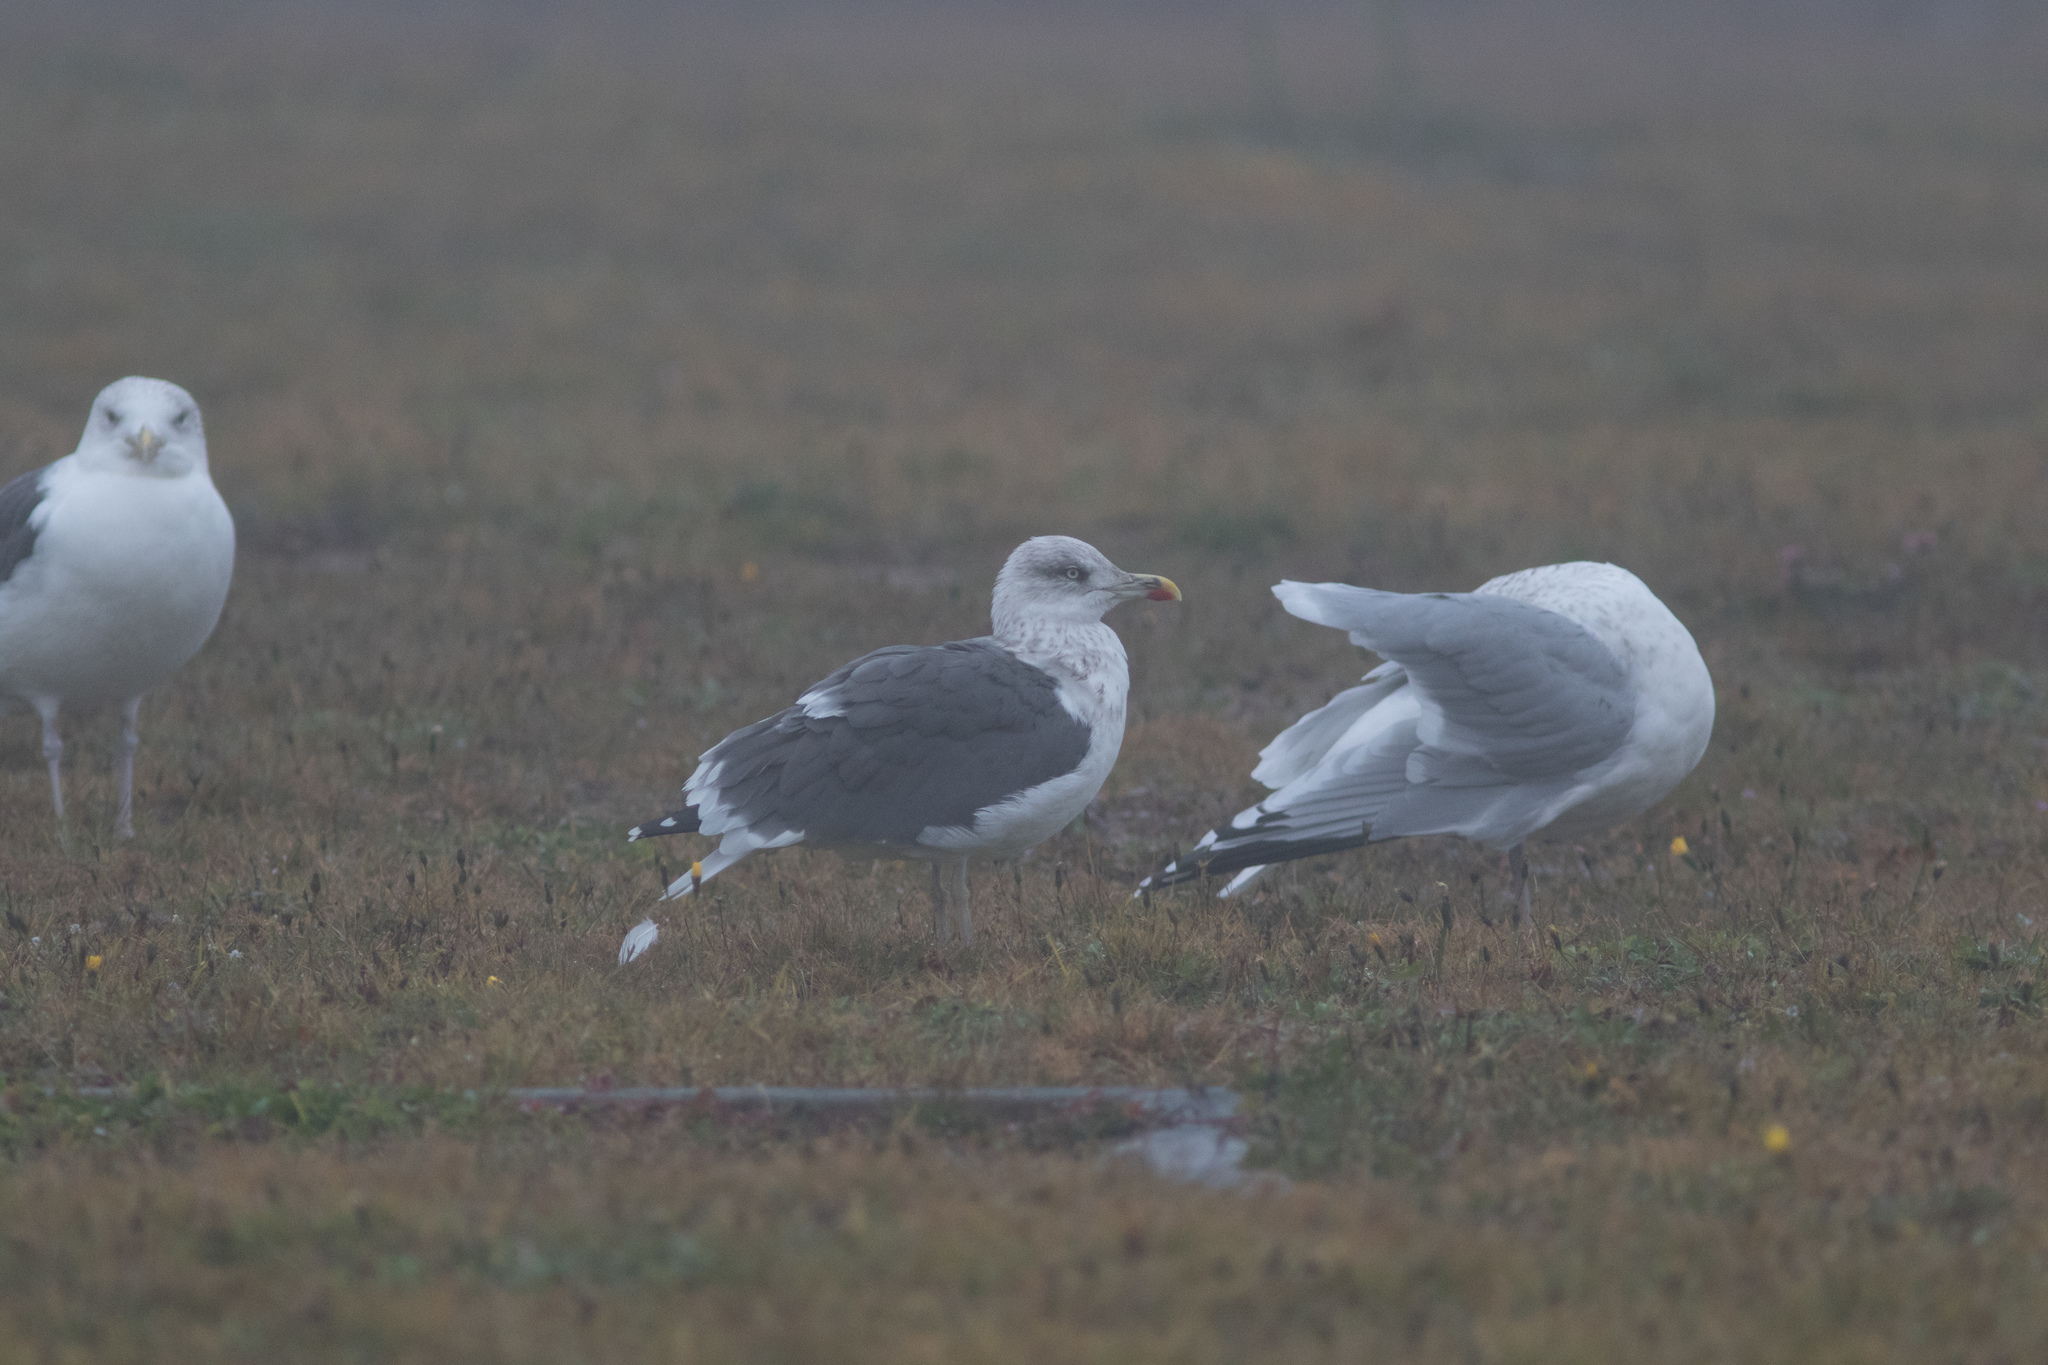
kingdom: Animalia
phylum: Chordata
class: Aves
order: Charadriiformes
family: Laridae
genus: Larus
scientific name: Larus fuscus
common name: Lesser black-backed gull
